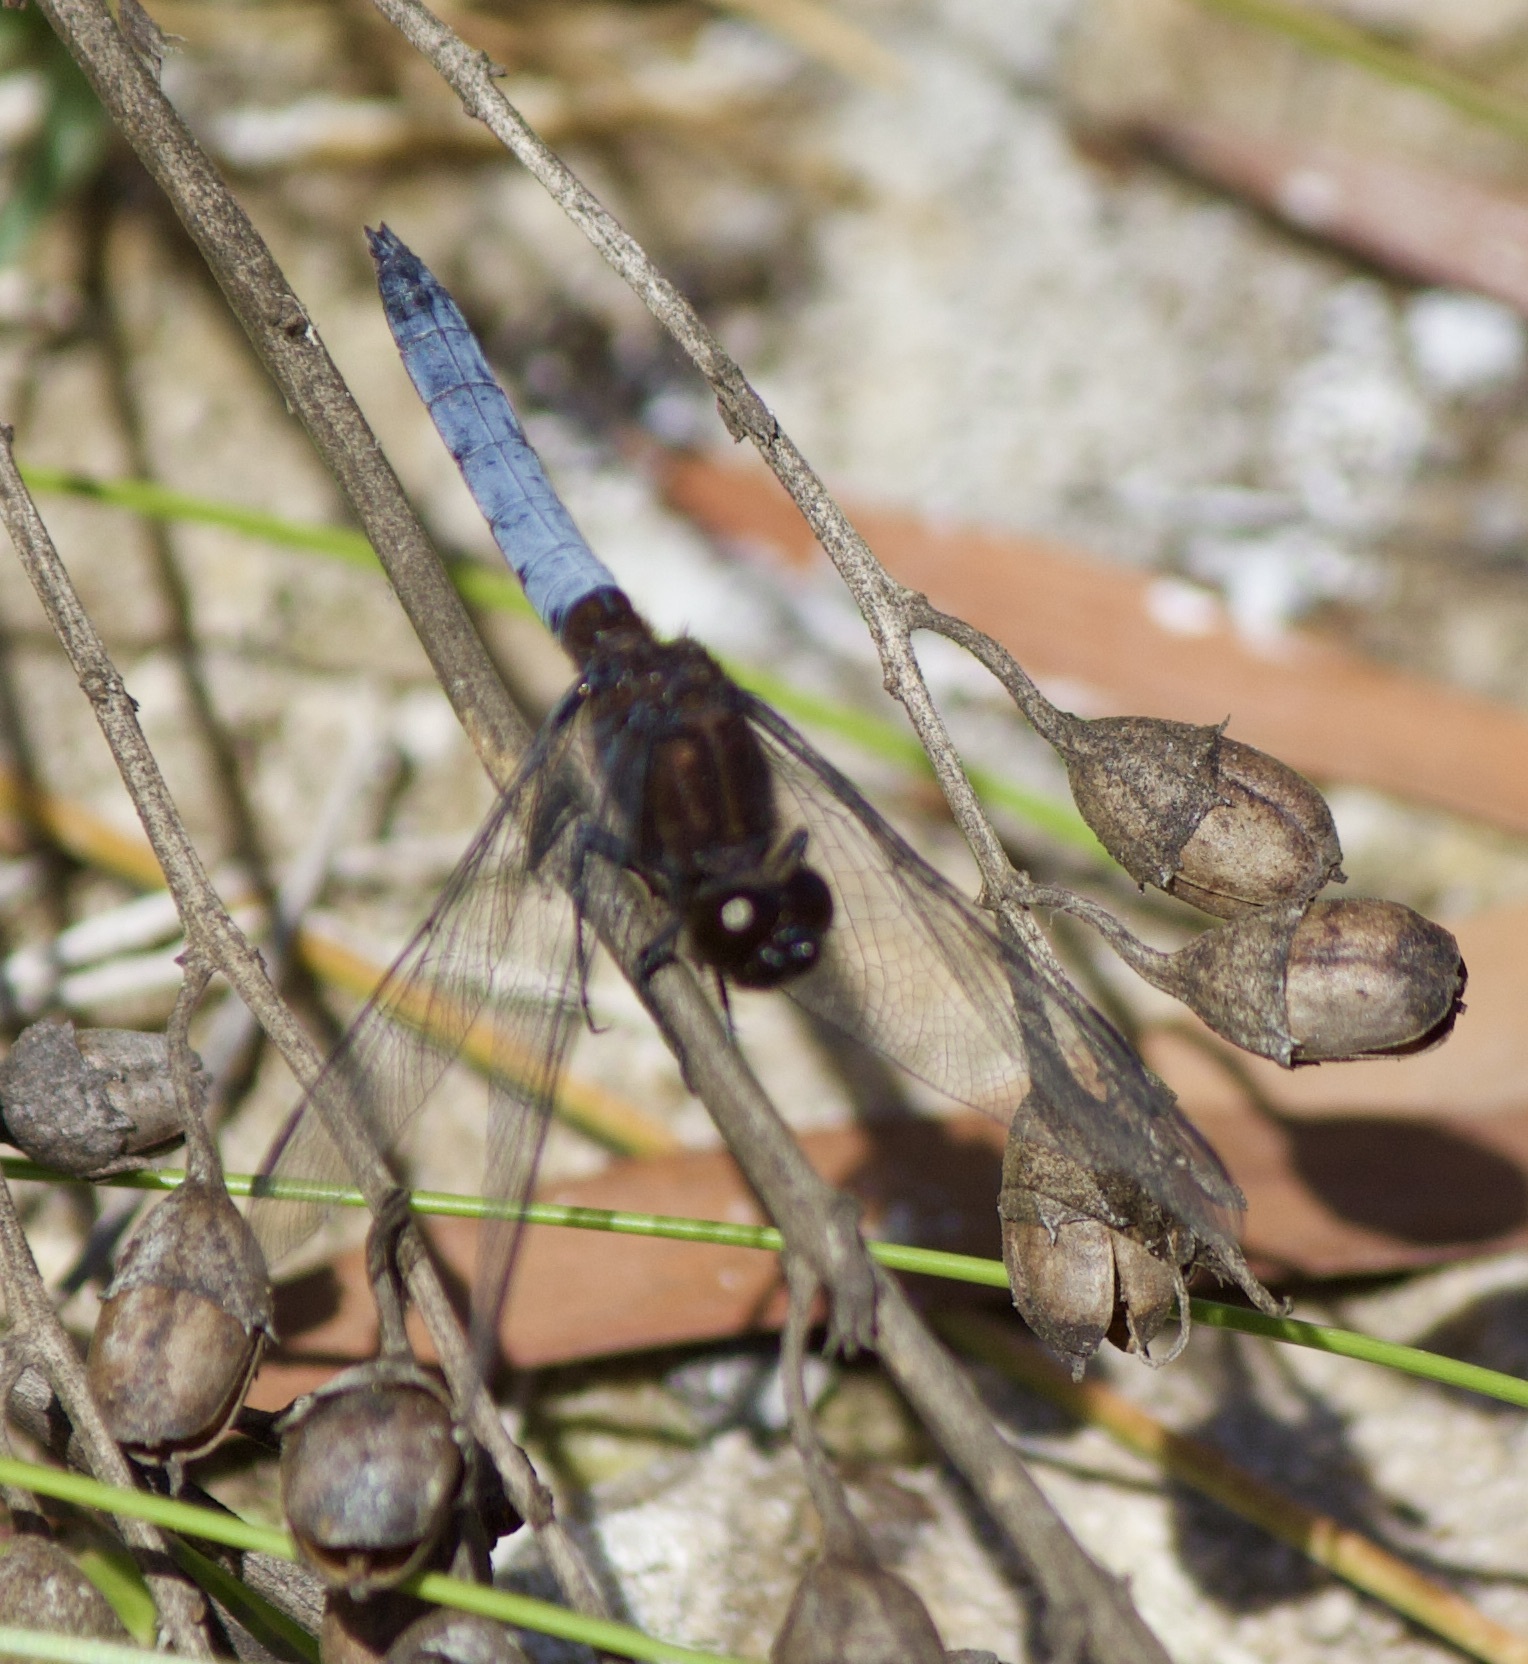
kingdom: Animalia
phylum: Arthropoda
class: Insecta
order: Odonata
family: Libellulidae
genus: Erythrodiplax
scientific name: Erythrodiplax connata
